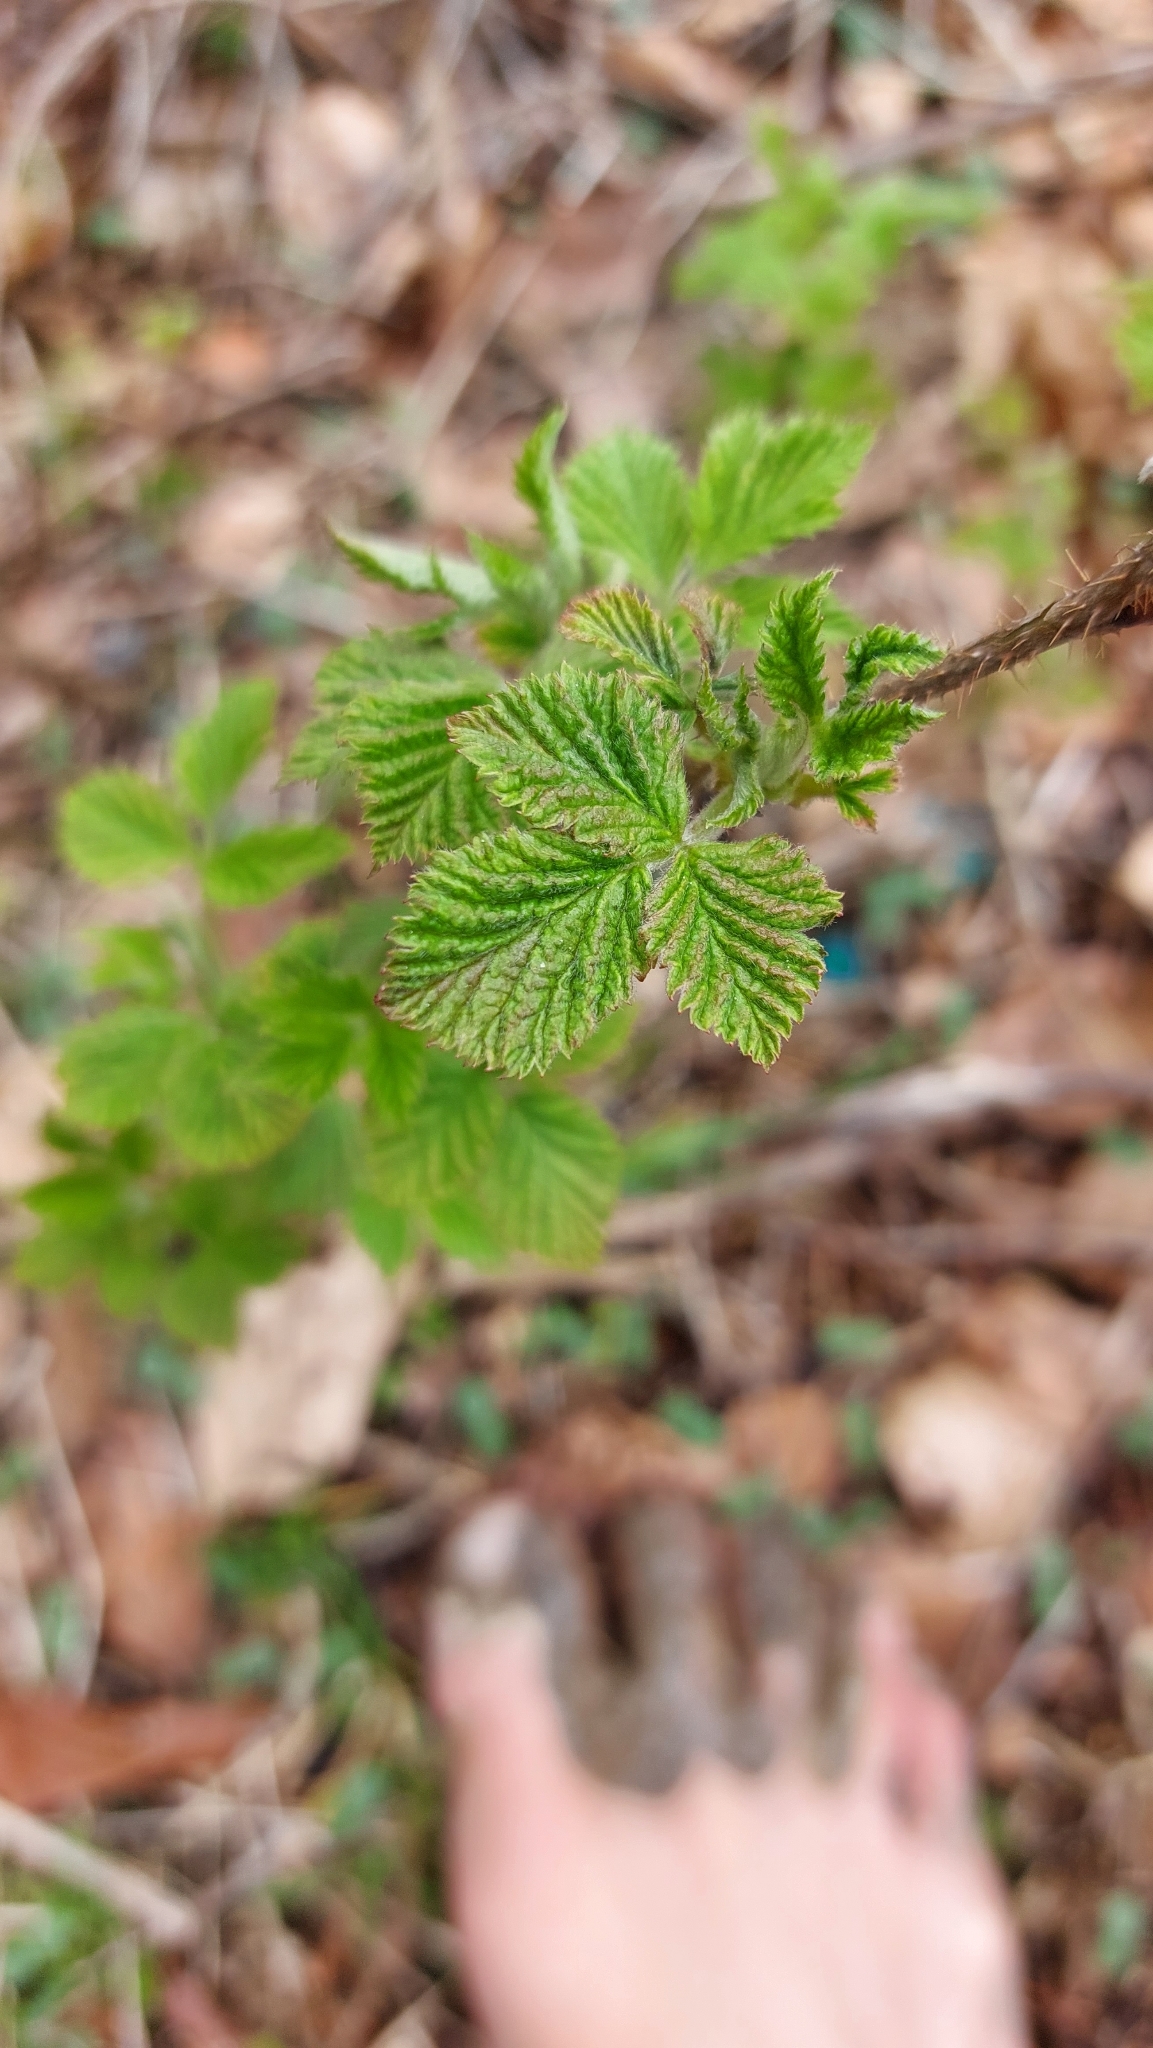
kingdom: Plantae
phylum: Tracheophyta
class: Magnoliopsida
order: Rosales
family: Rosaceae
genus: Rubus
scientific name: Rubus idaeus
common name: Raspberry
